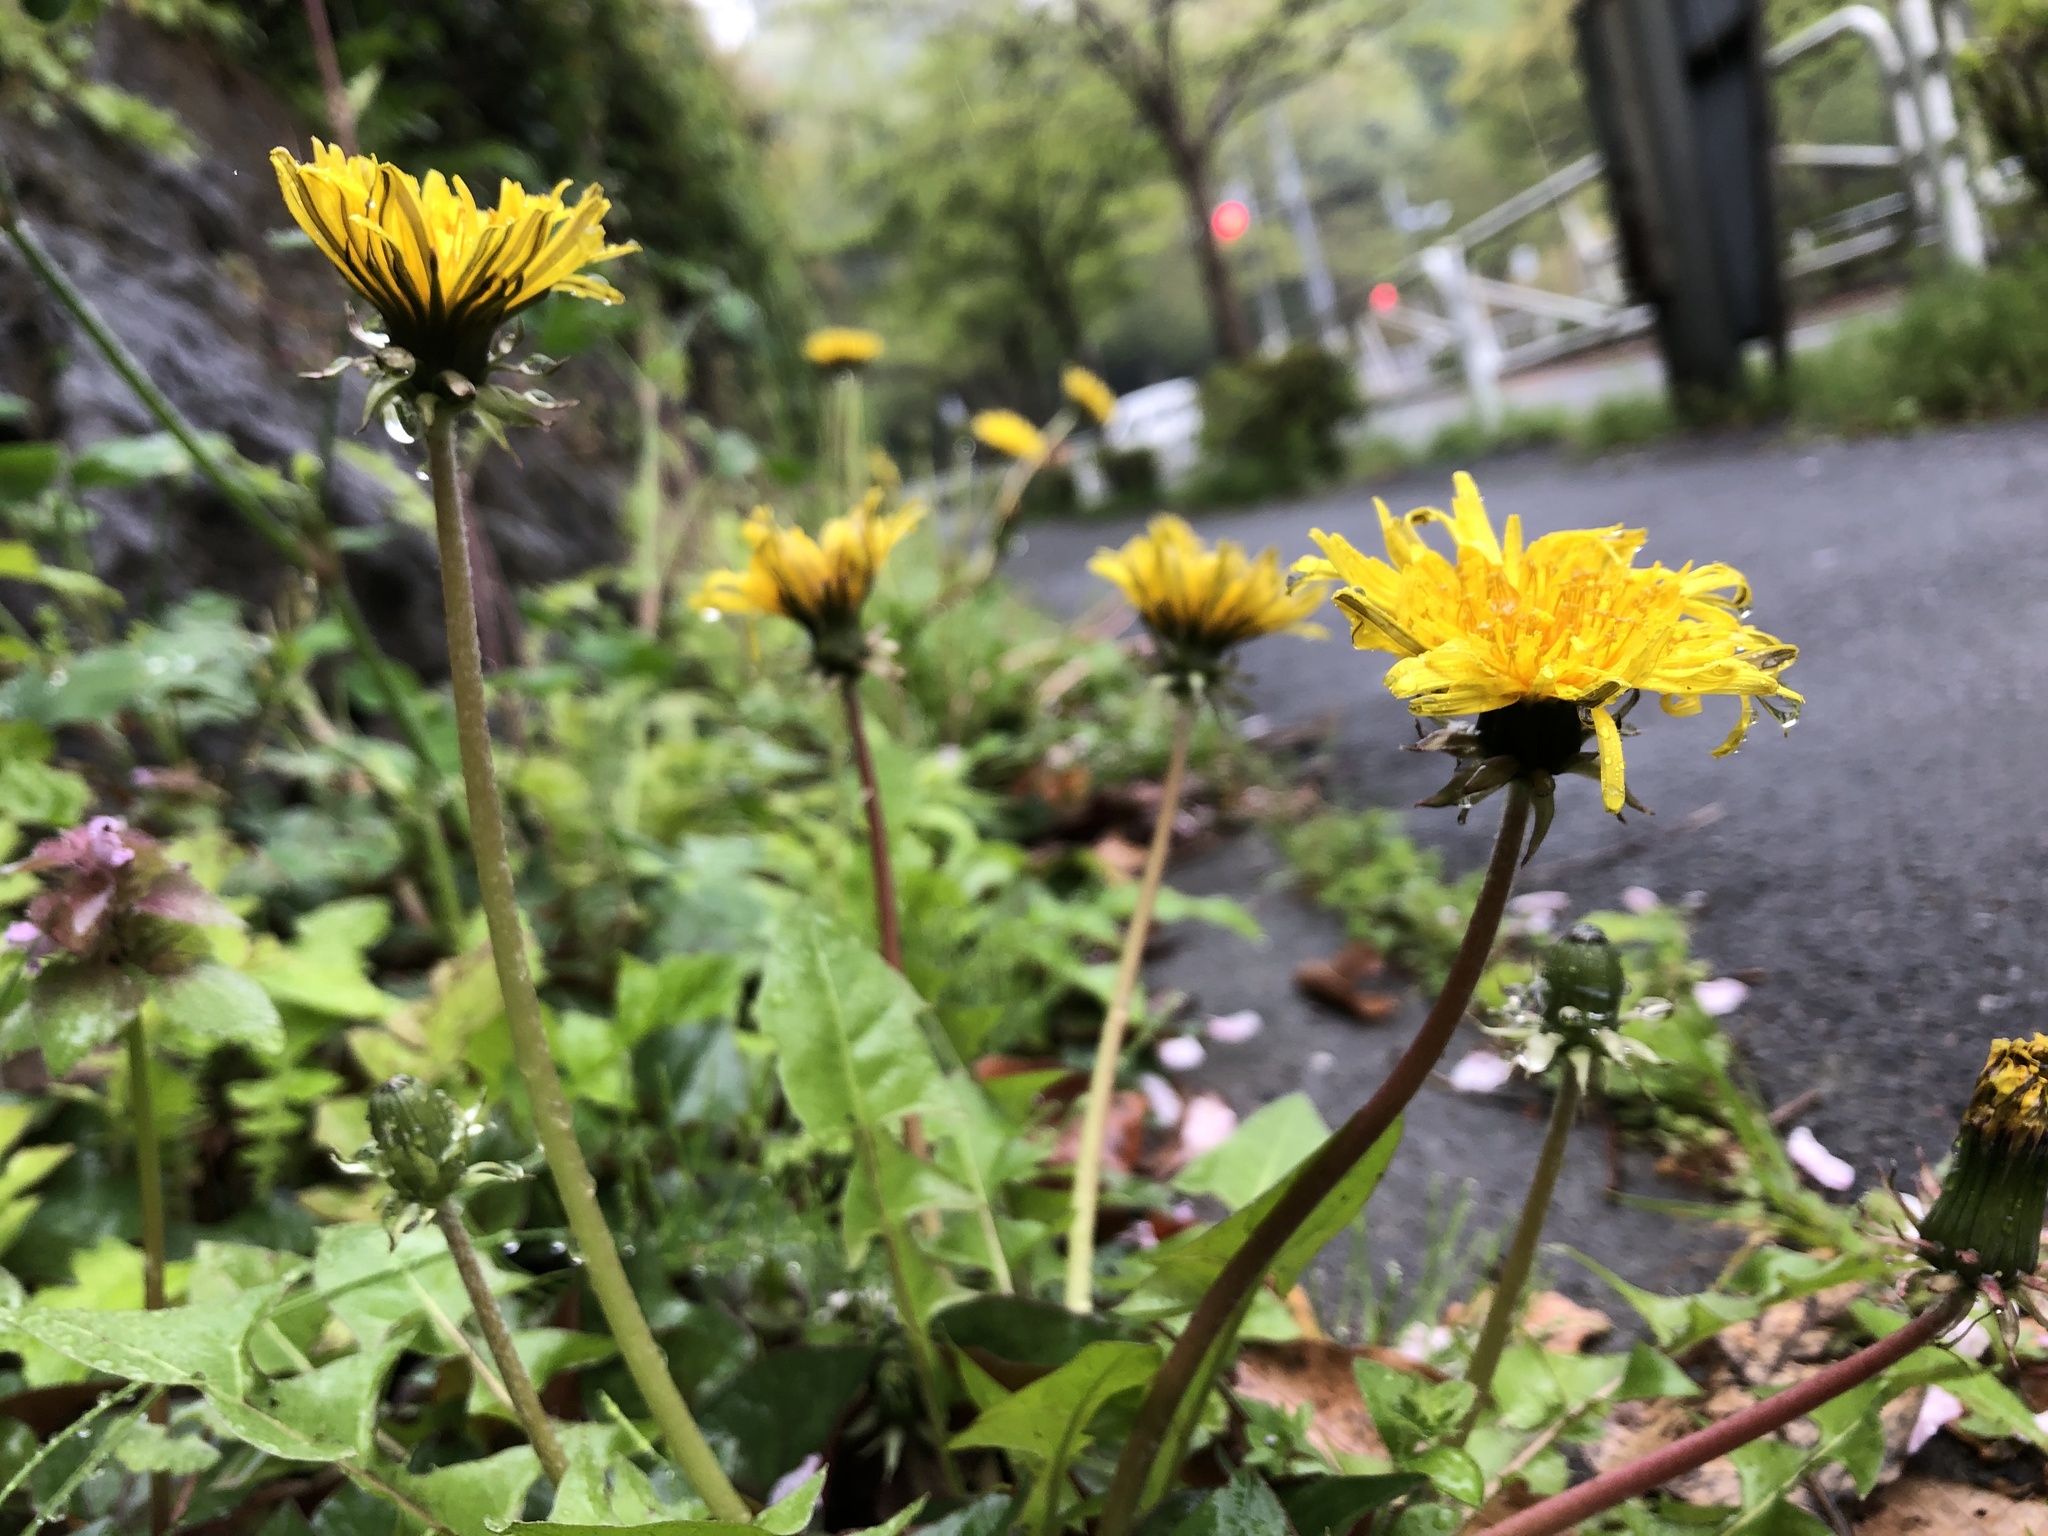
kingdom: Plantae
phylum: Tracheophyta
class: Magnoliopsida
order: Asterales
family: Asteraceae
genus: Taraxacum
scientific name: Taraxacum officinale
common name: Common dandelion
